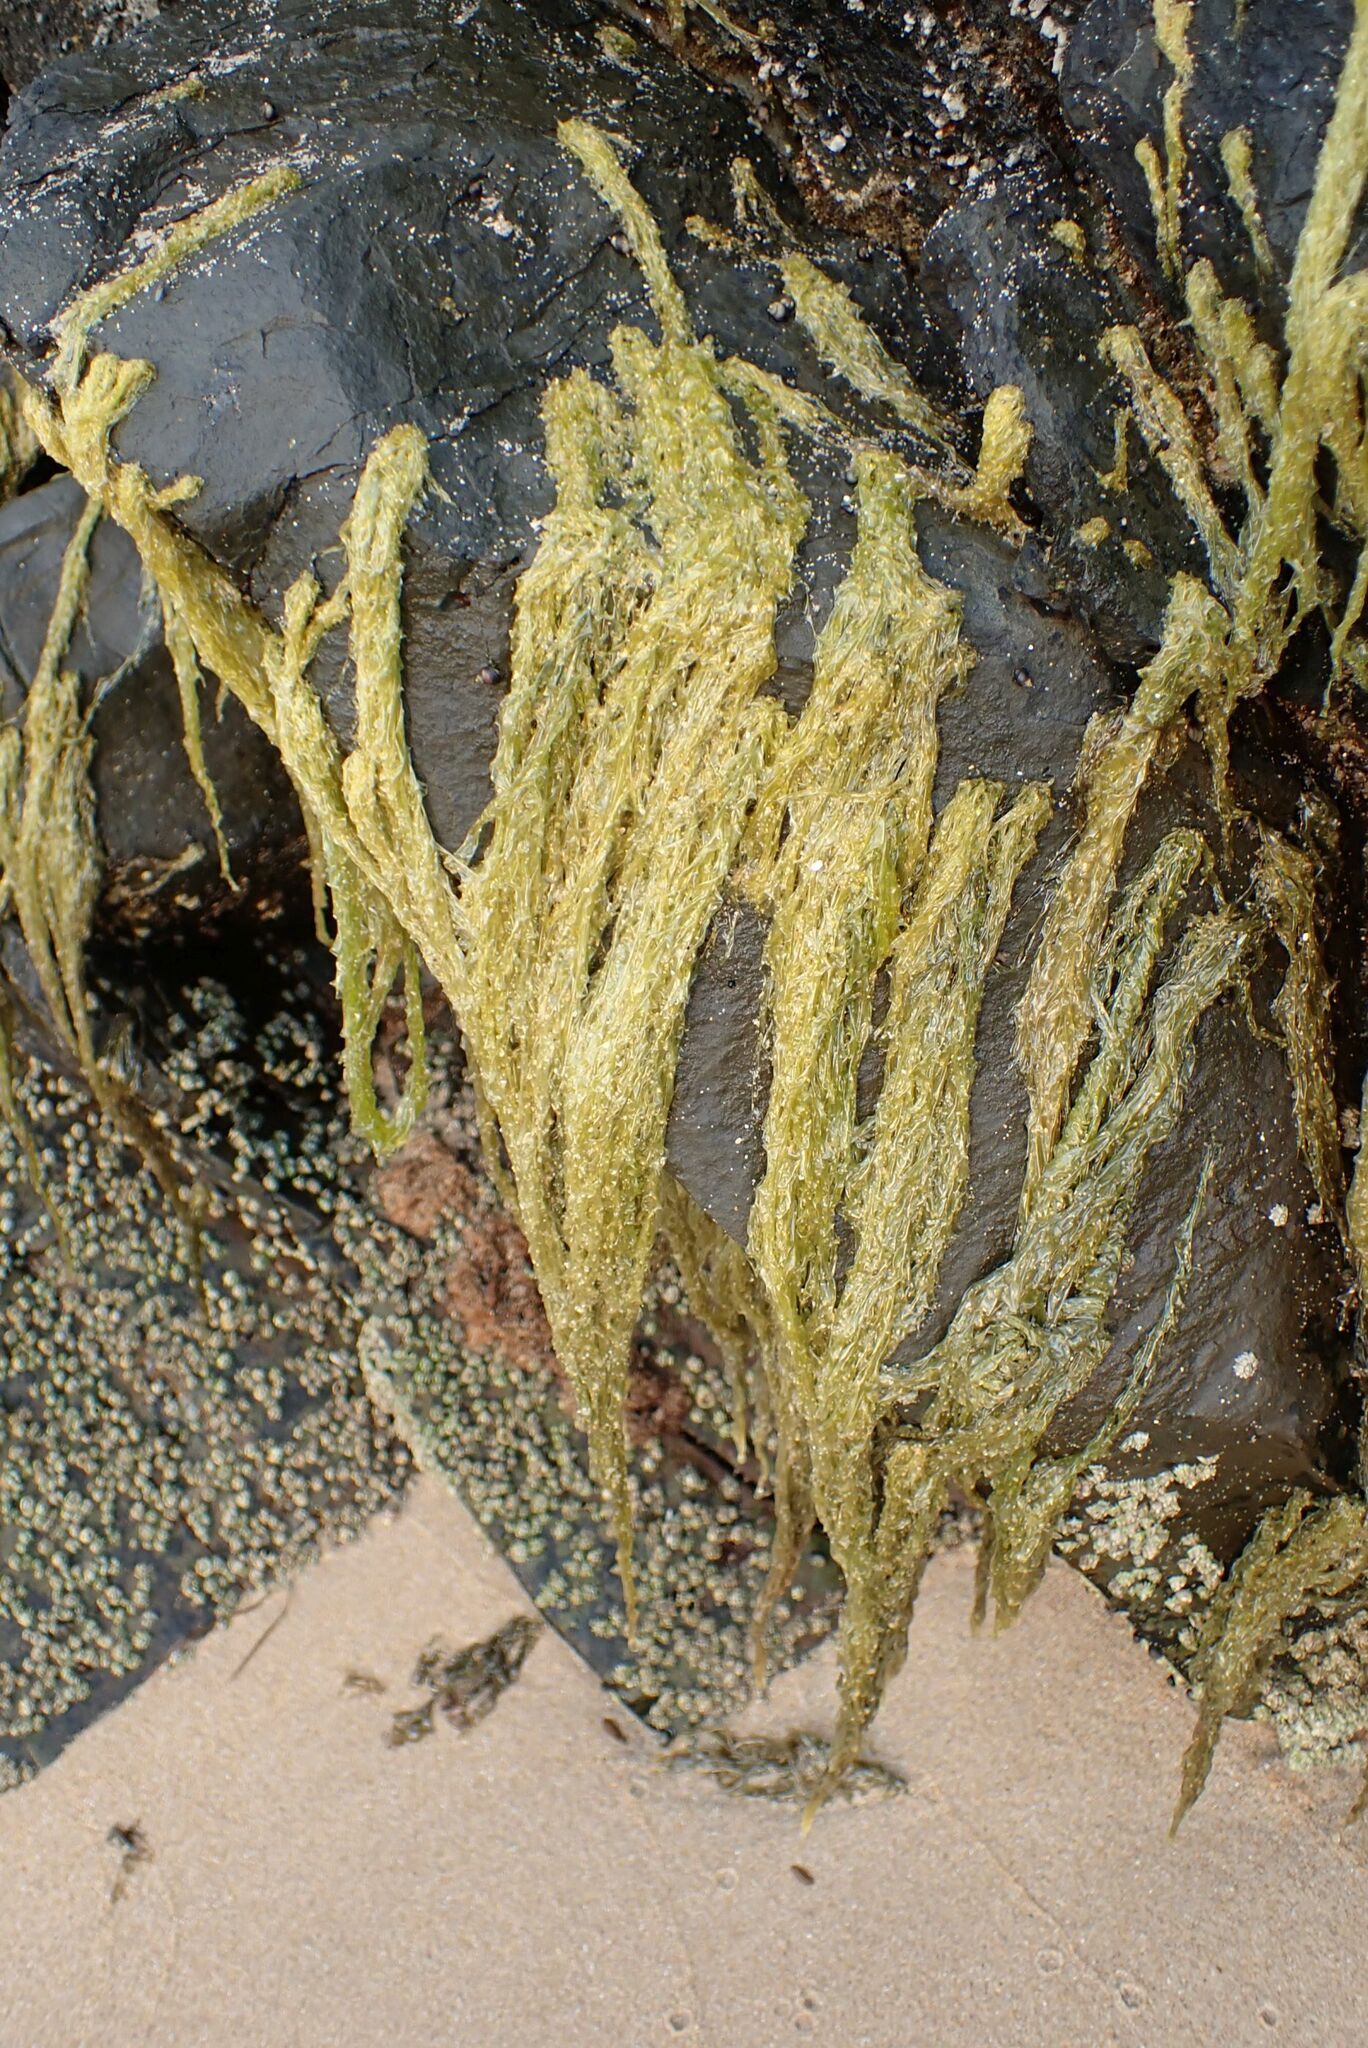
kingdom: Plantae
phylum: Rhodophyta
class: Bangiophyceae
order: Bangiales
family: Bangiaceae
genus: Porphyra
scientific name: Porphyra capensis
